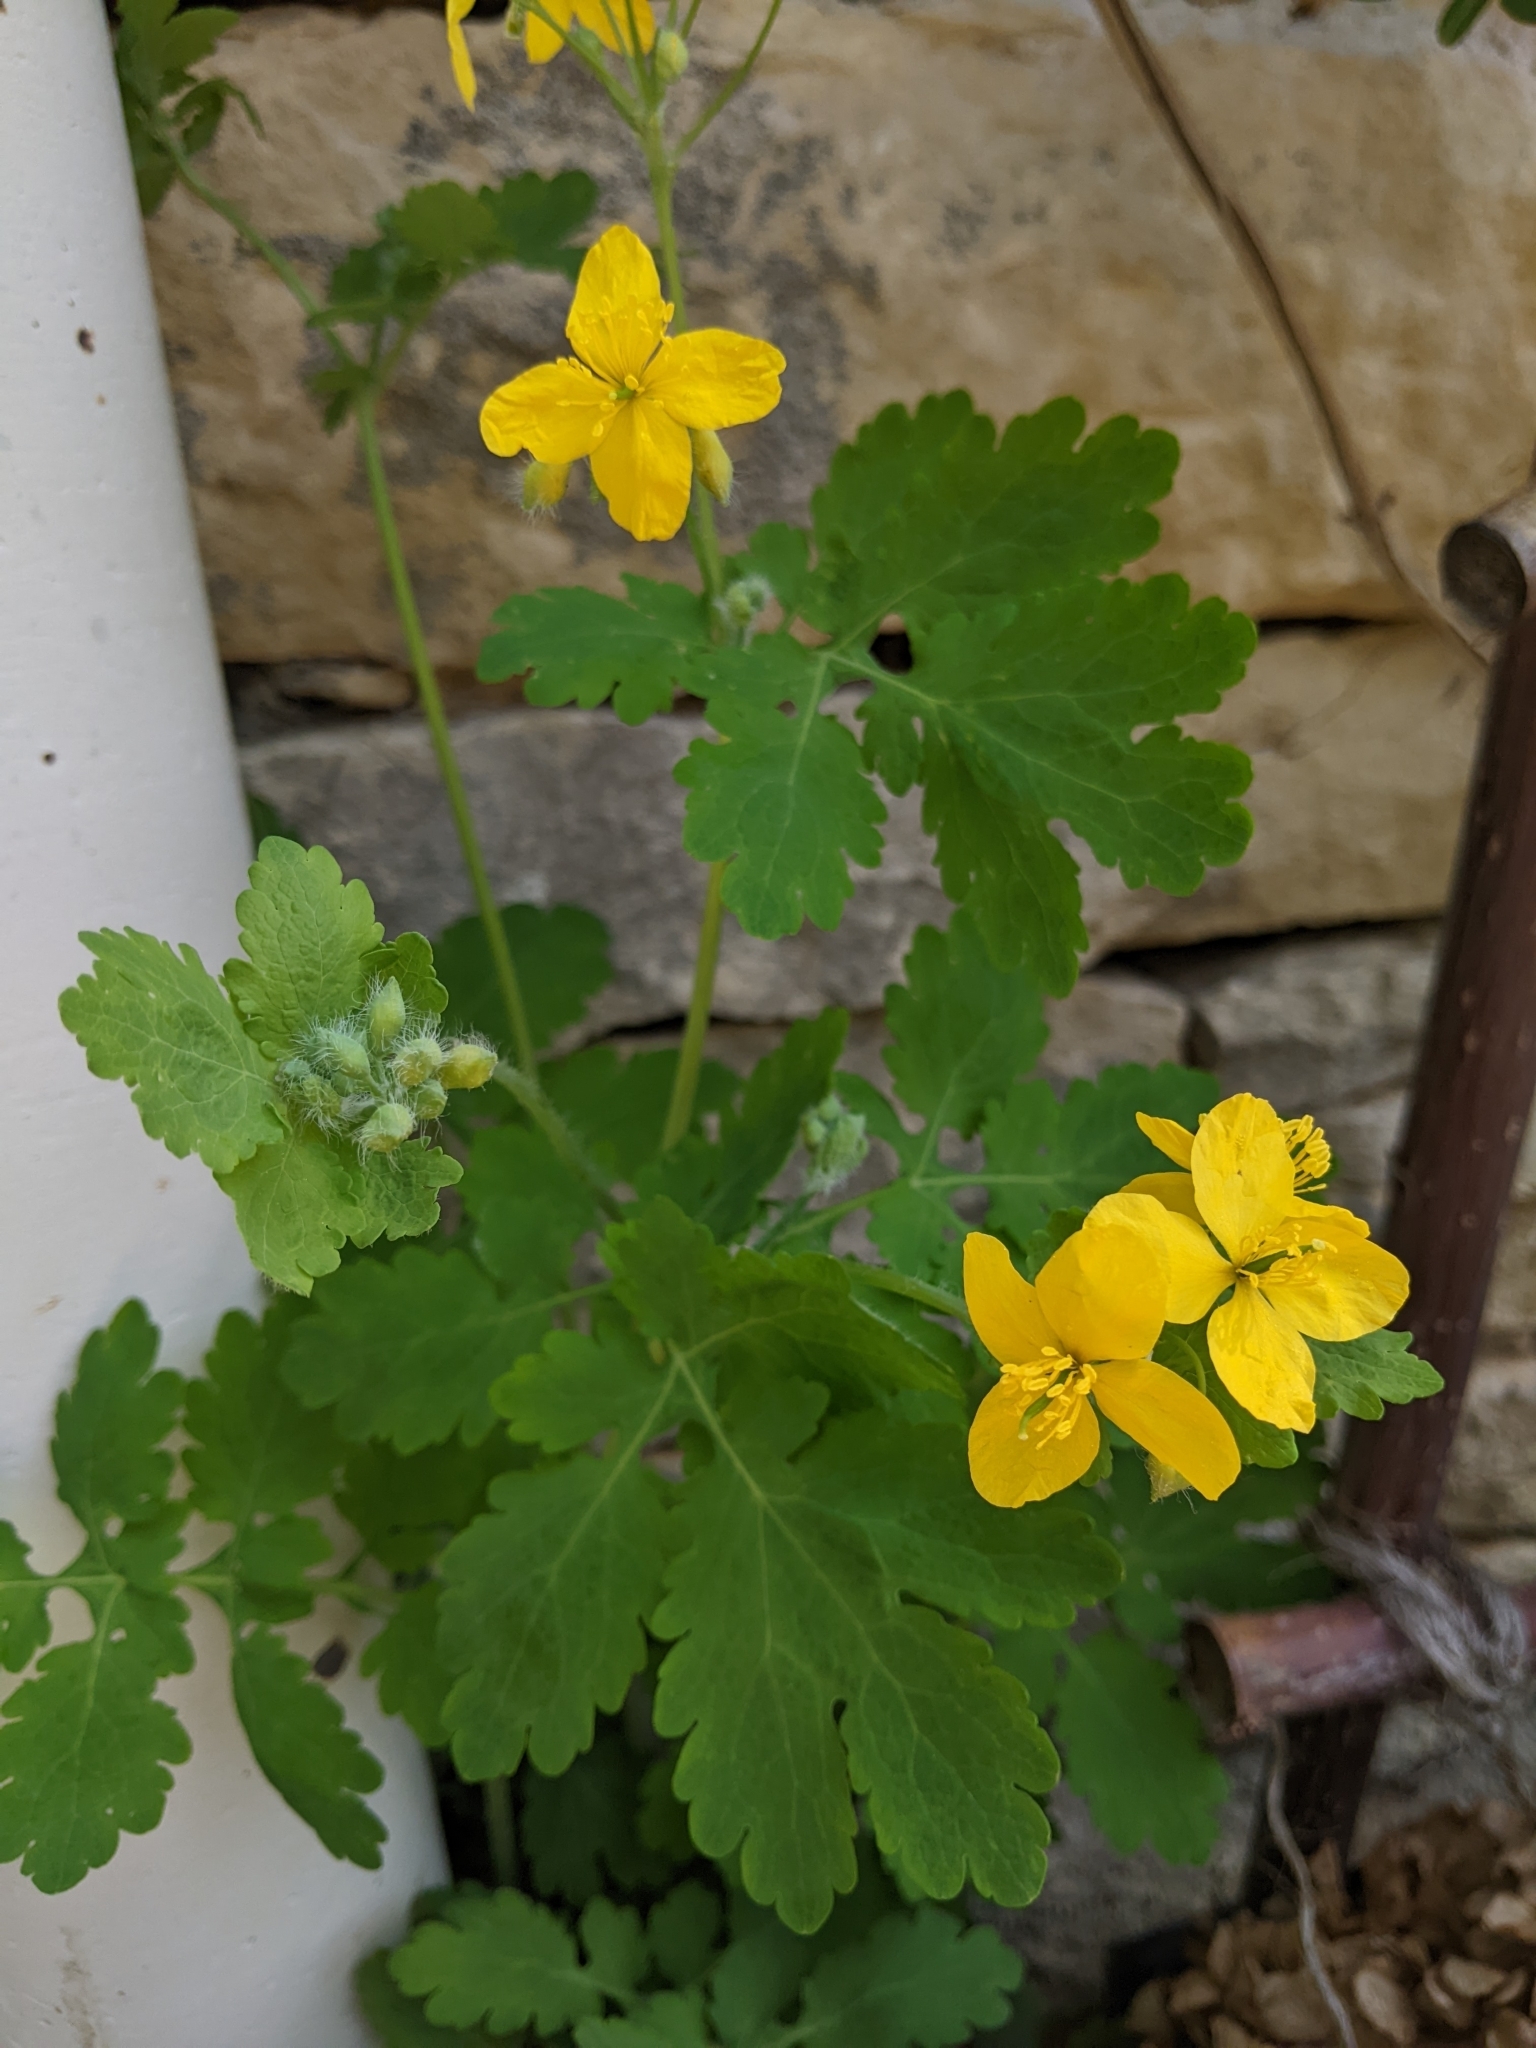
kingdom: Plantae
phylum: Tracheophyta
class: Magnoliopsida
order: Ranunculales
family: Papaveraceae
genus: Chelidonium
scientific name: Chelidonium majus
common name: Greater celandine
